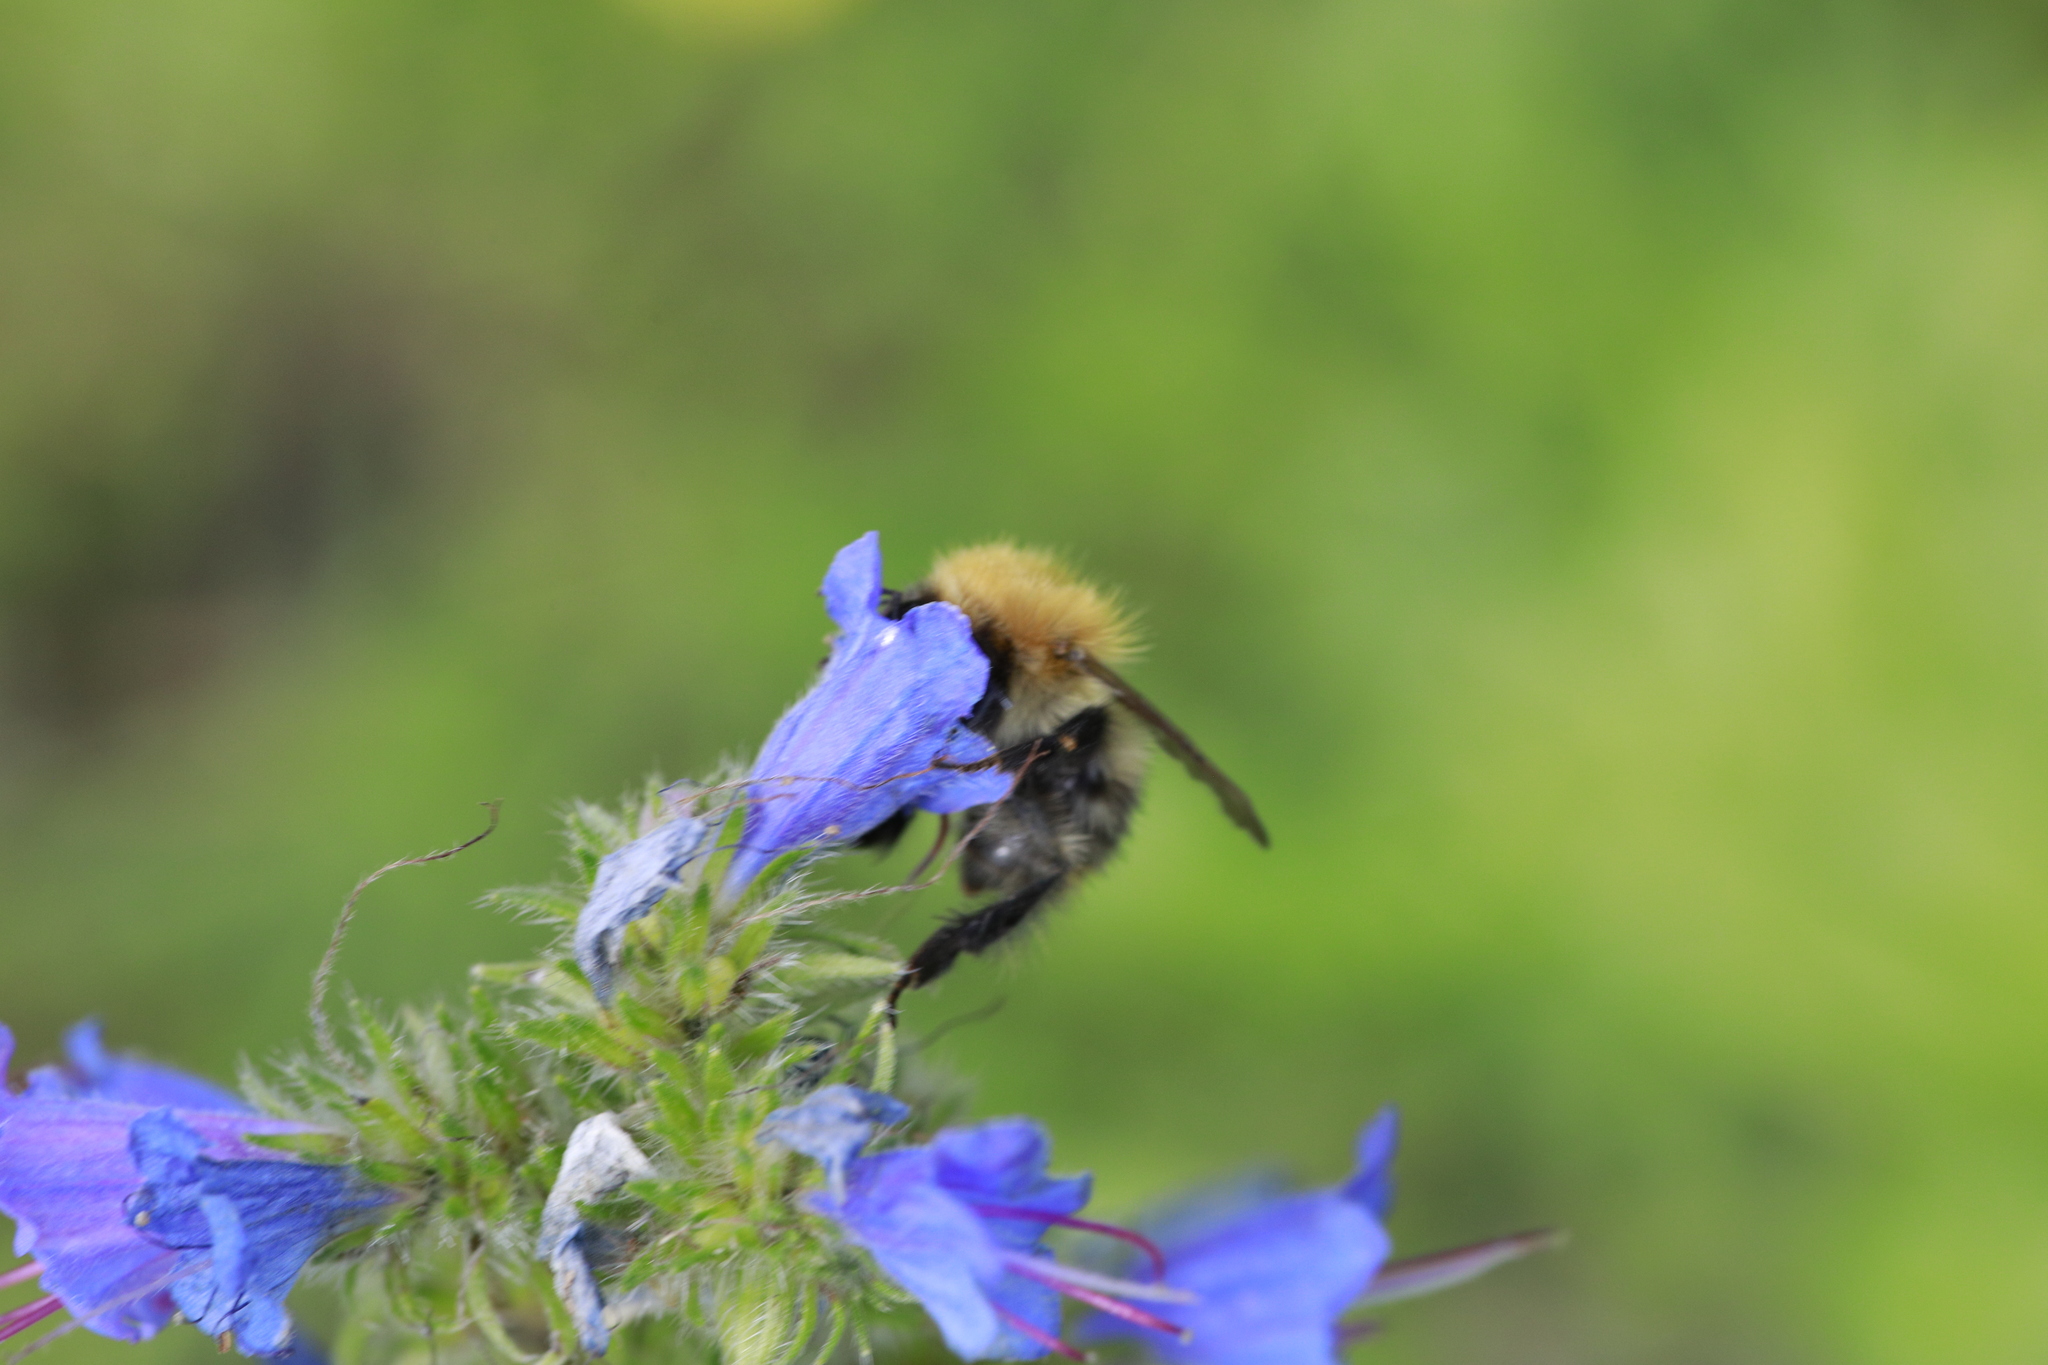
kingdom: Animalia
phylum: Arthropoda
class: Insecta
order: Hymenoptera
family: Apidae
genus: Bombus
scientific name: Bombus pascuorum
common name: Common carder bee
